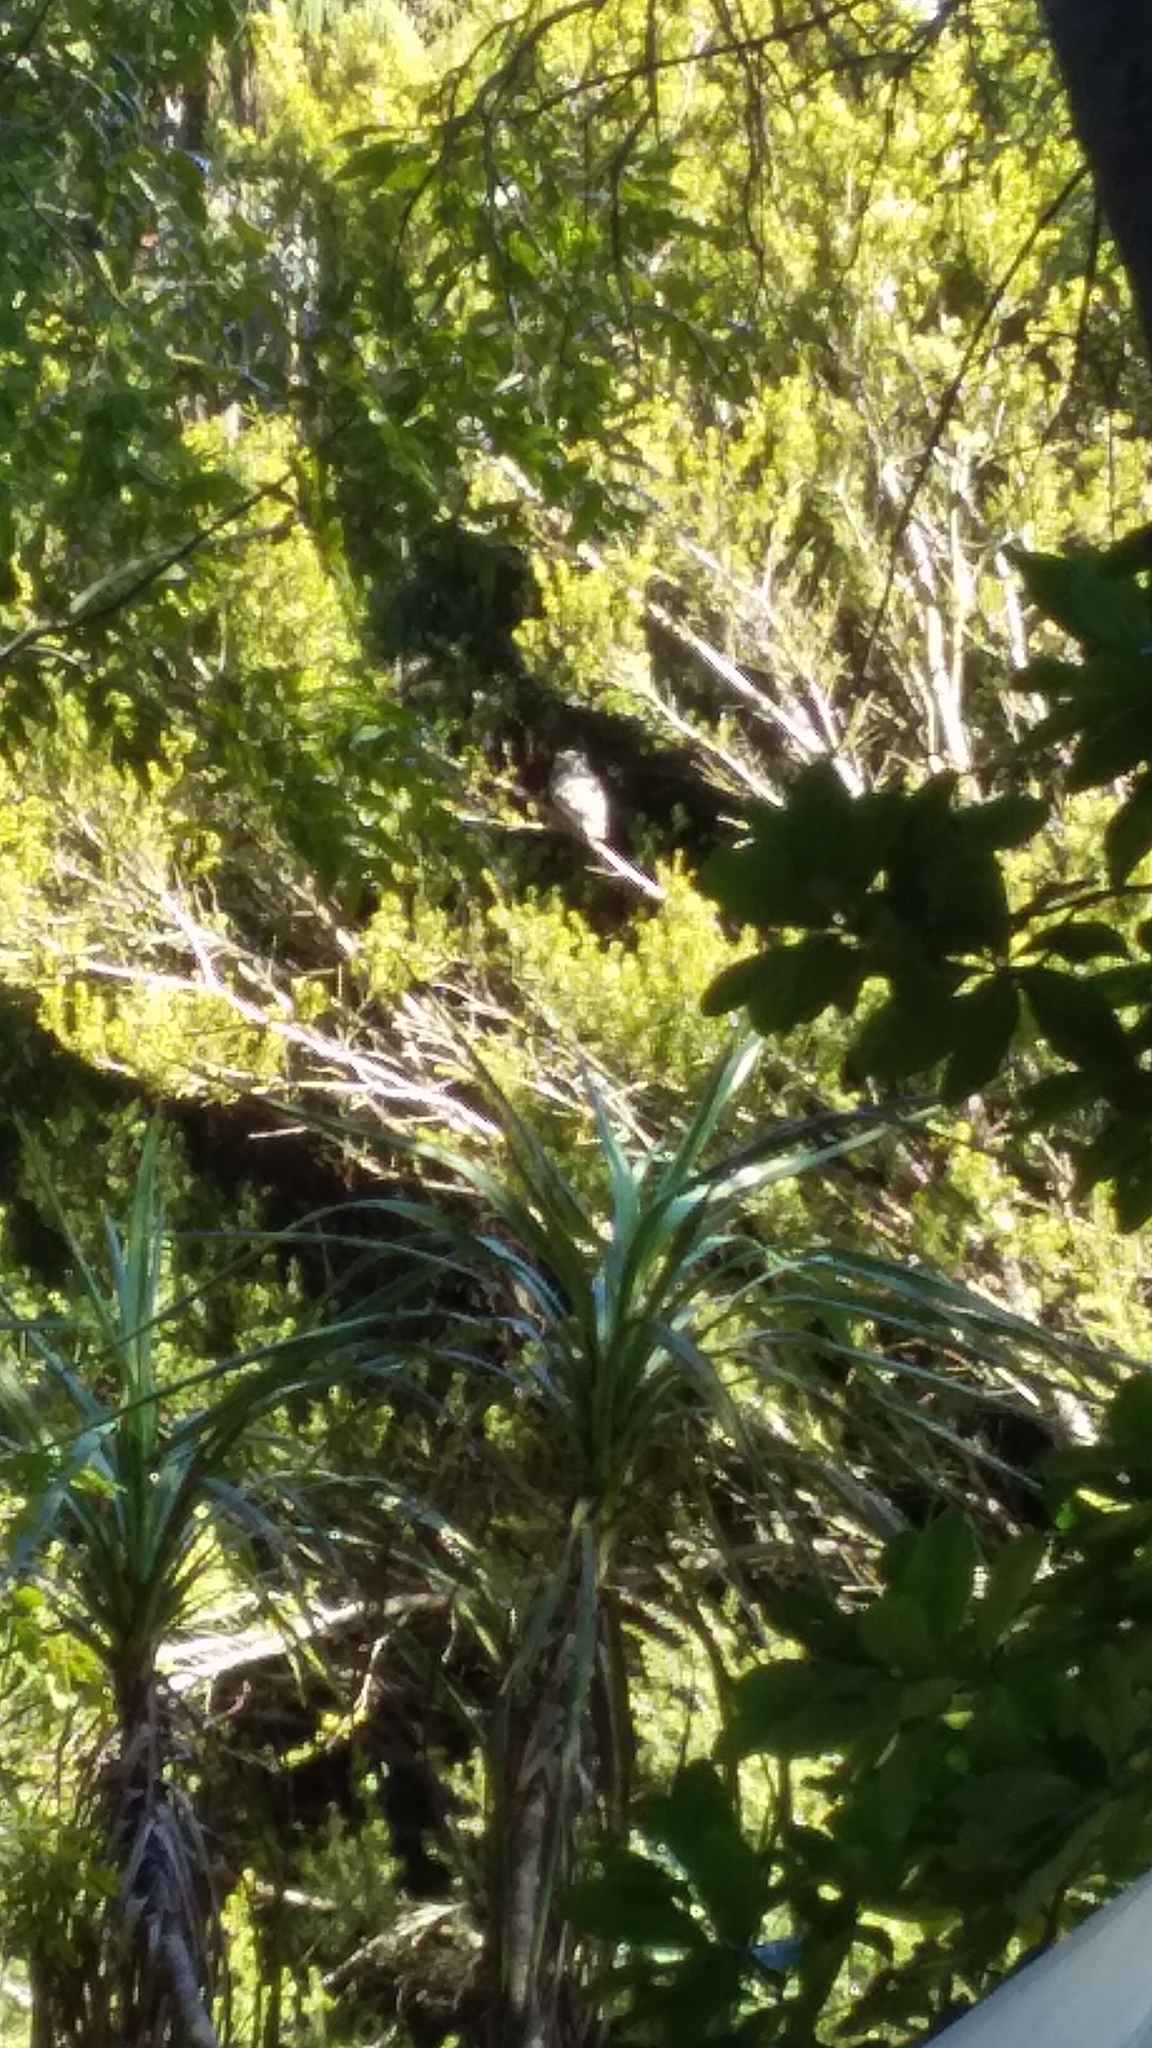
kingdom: Animalia
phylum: Chordata
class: Aves
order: Strigiformes
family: Strigidae
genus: Athene
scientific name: Athene noctua
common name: Little owl
